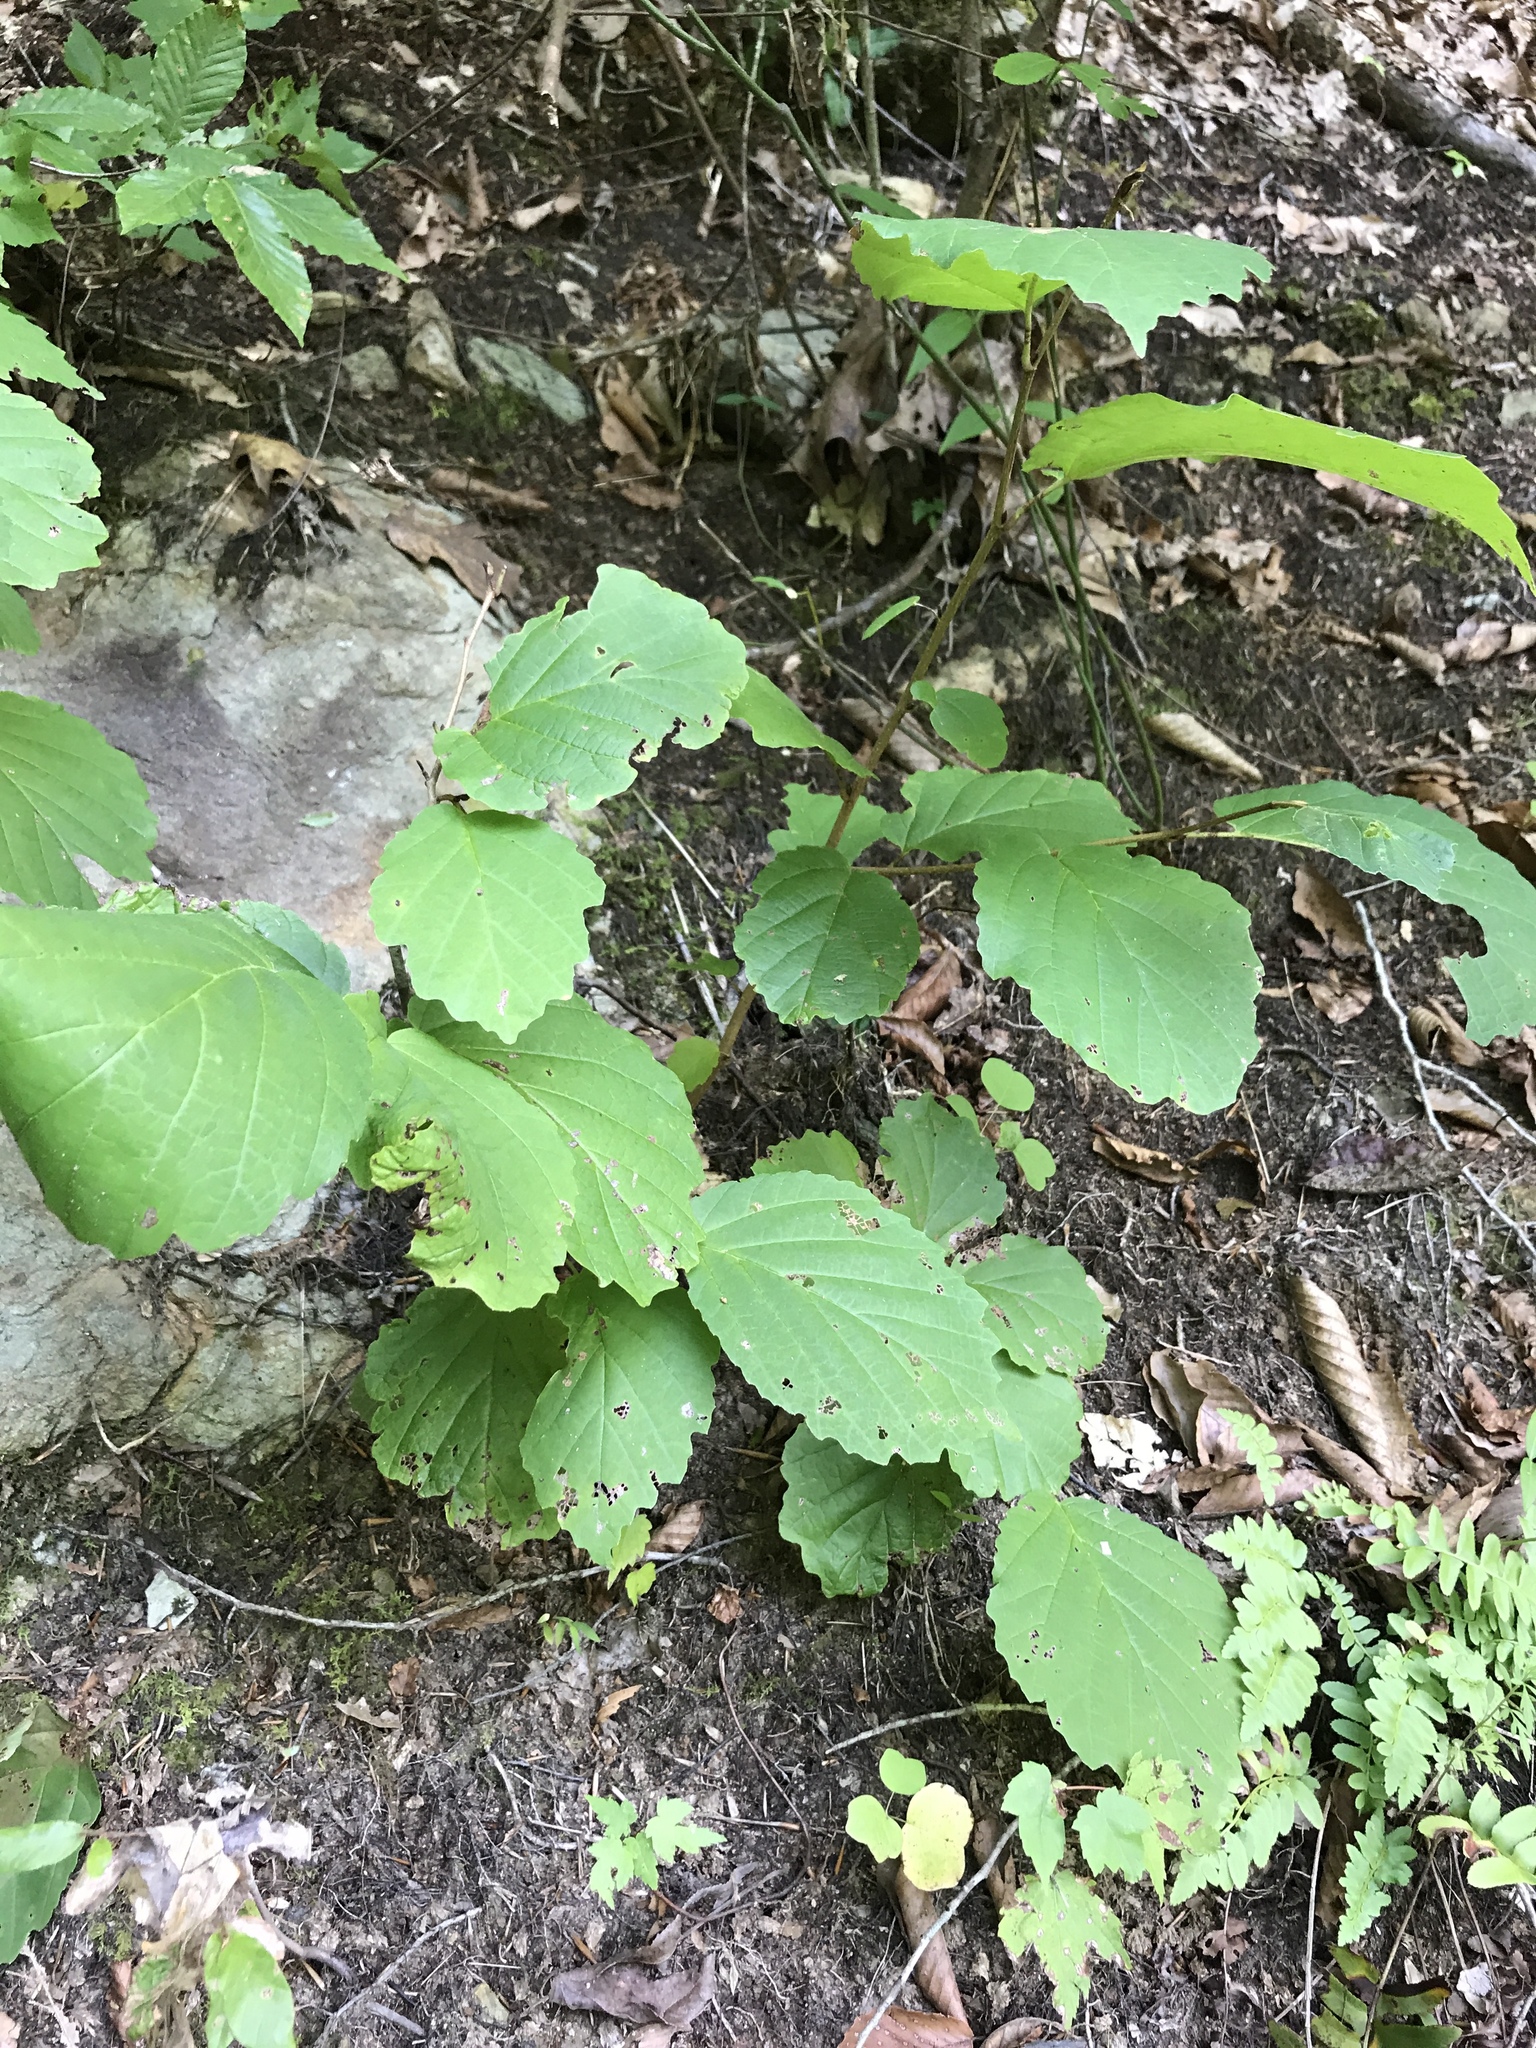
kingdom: Plantae
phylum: Tracheophyta
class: Magnoliopsida
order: Saxifragales
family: Hamamelidaceae
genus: Hamamelis
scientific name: Hamamelis virginiana
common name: Witch-hazel
